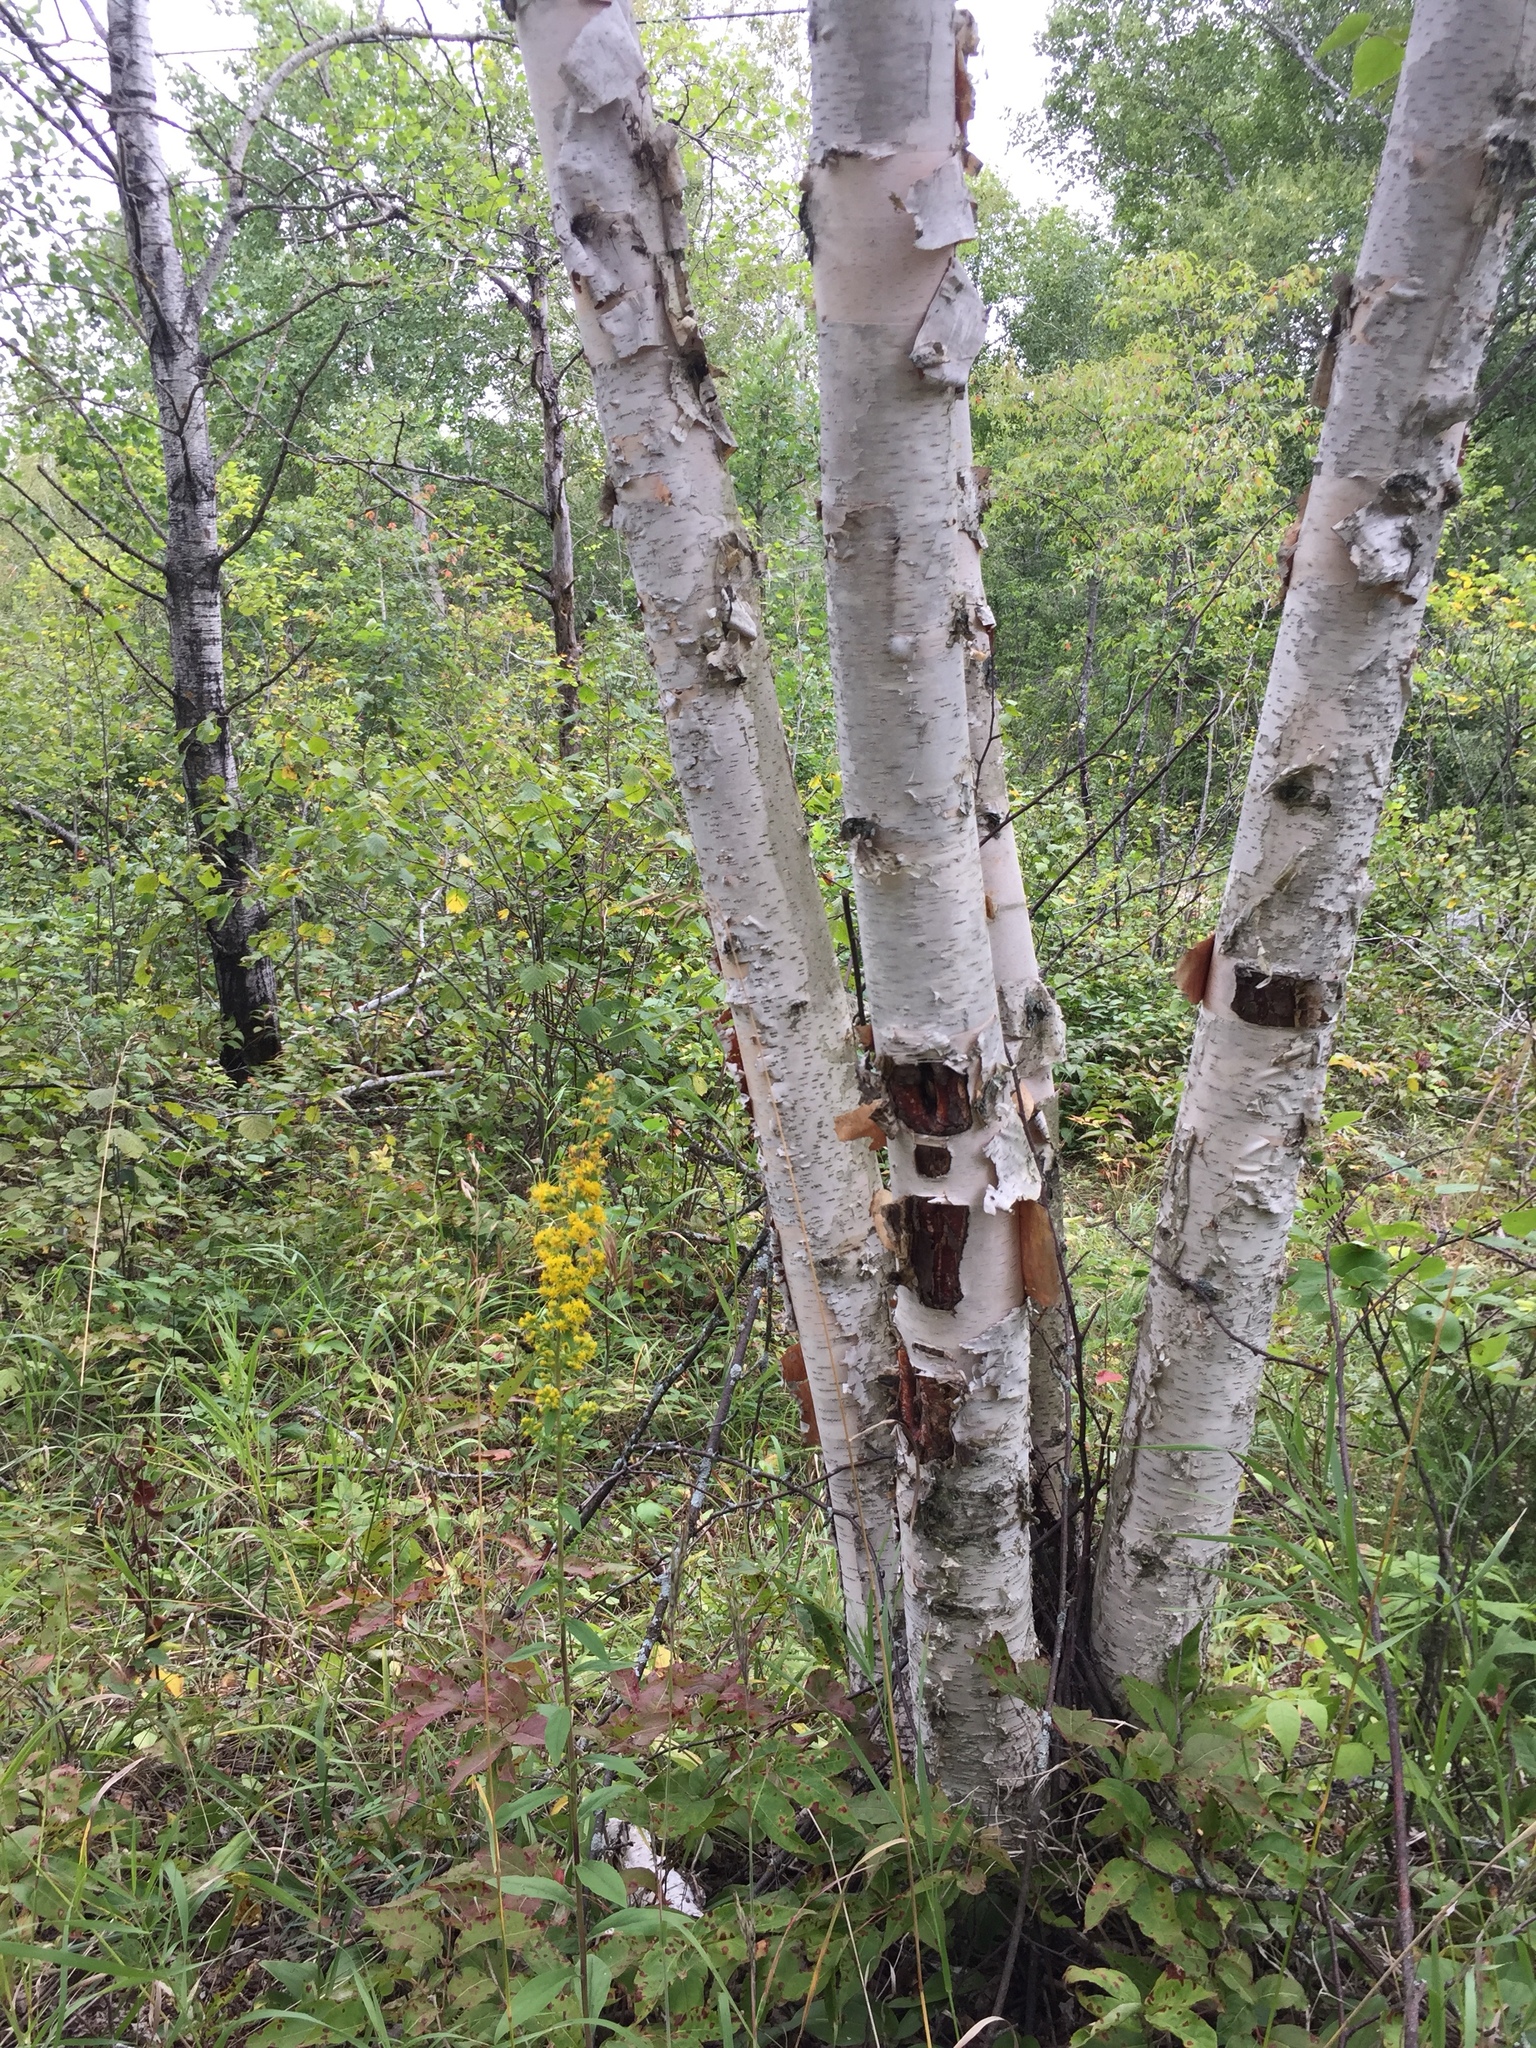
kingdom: Plantae
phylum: Tracheophyta
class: Magnoliopsida
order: Fagales
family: Betulaceae
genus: Betula
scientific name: Betula papyrifera
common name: Paper birch
